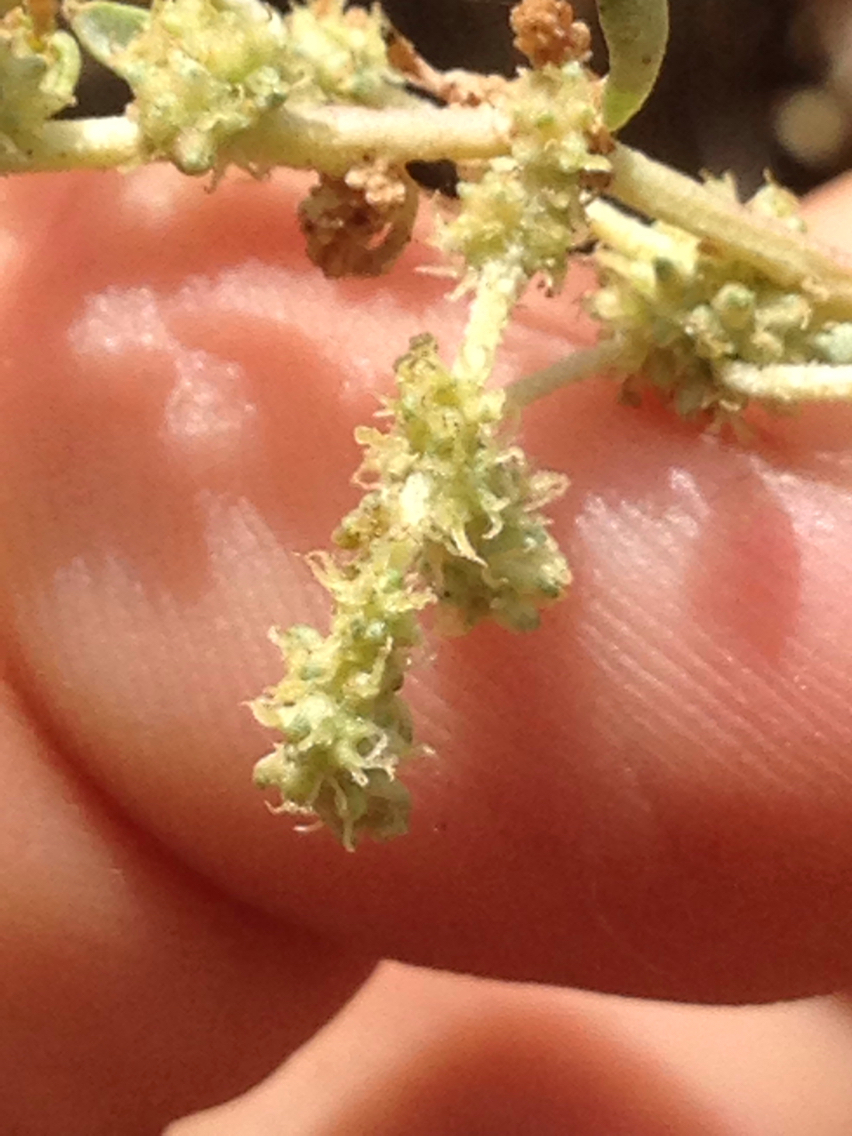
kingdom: Plantae
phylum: Tracheophyta
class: Magnoliopsida
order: Caryophyllales
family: Amaranthaceae
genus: Atriplex
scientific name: Atriplex lentiformis
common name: Big saltbush
